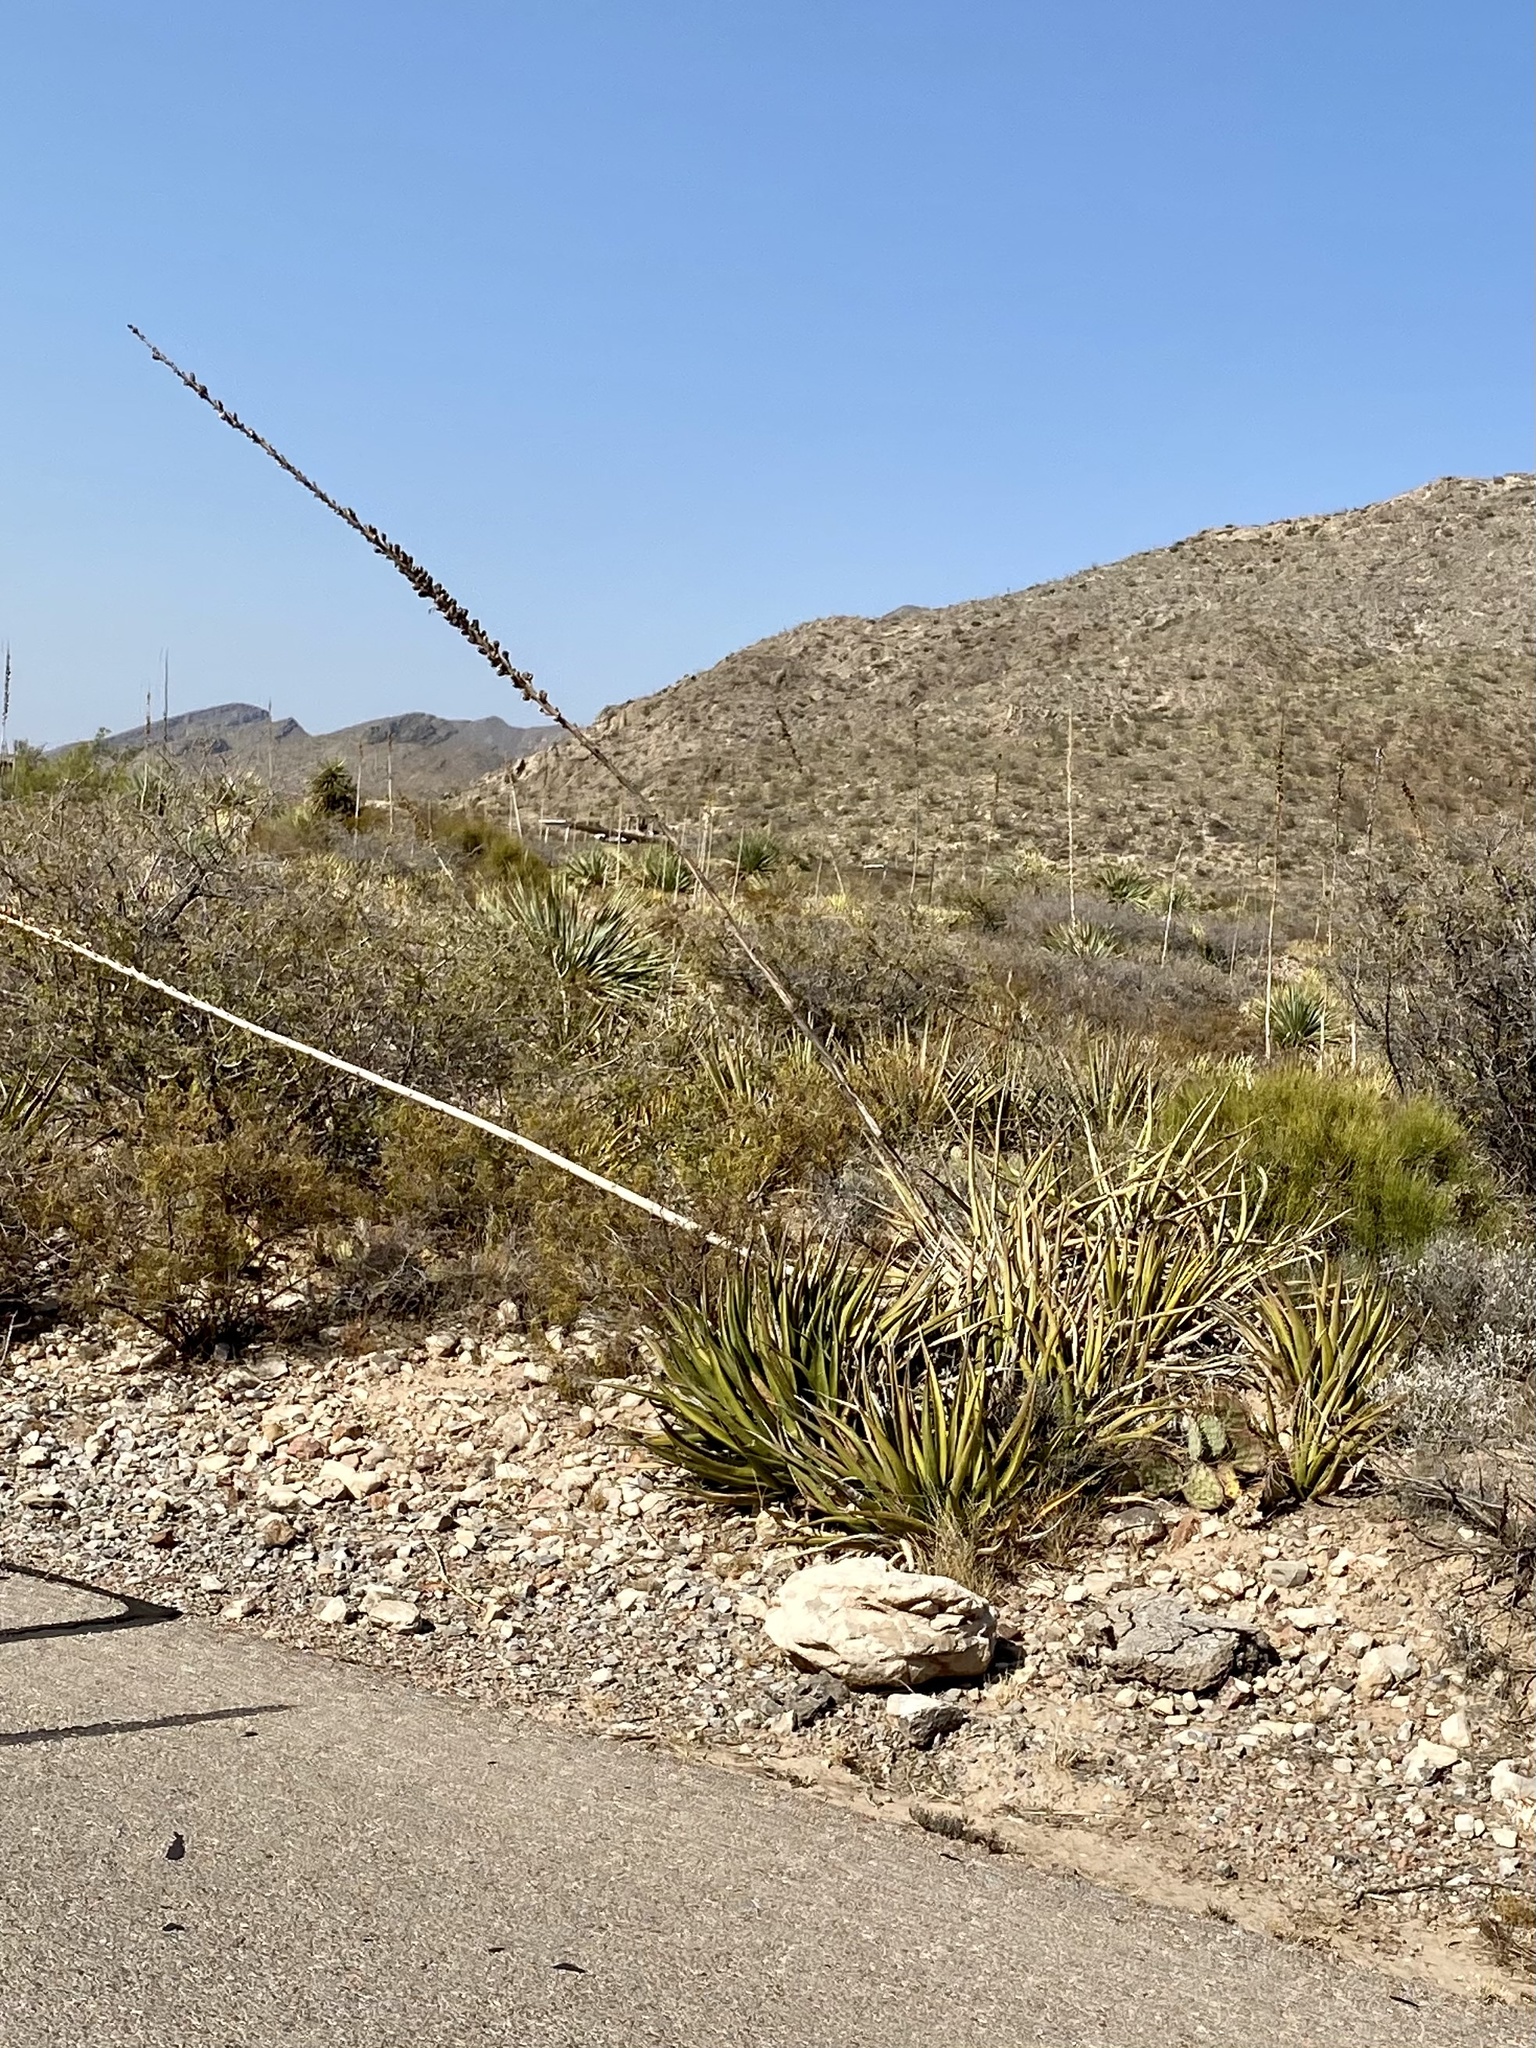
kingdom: Plantae
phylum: Tracheophyta
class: Liliopsida
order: Asparagales
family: Asparagaceae
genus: Agave
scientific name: Agave lechuguilla
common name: Lecheguilla agave
